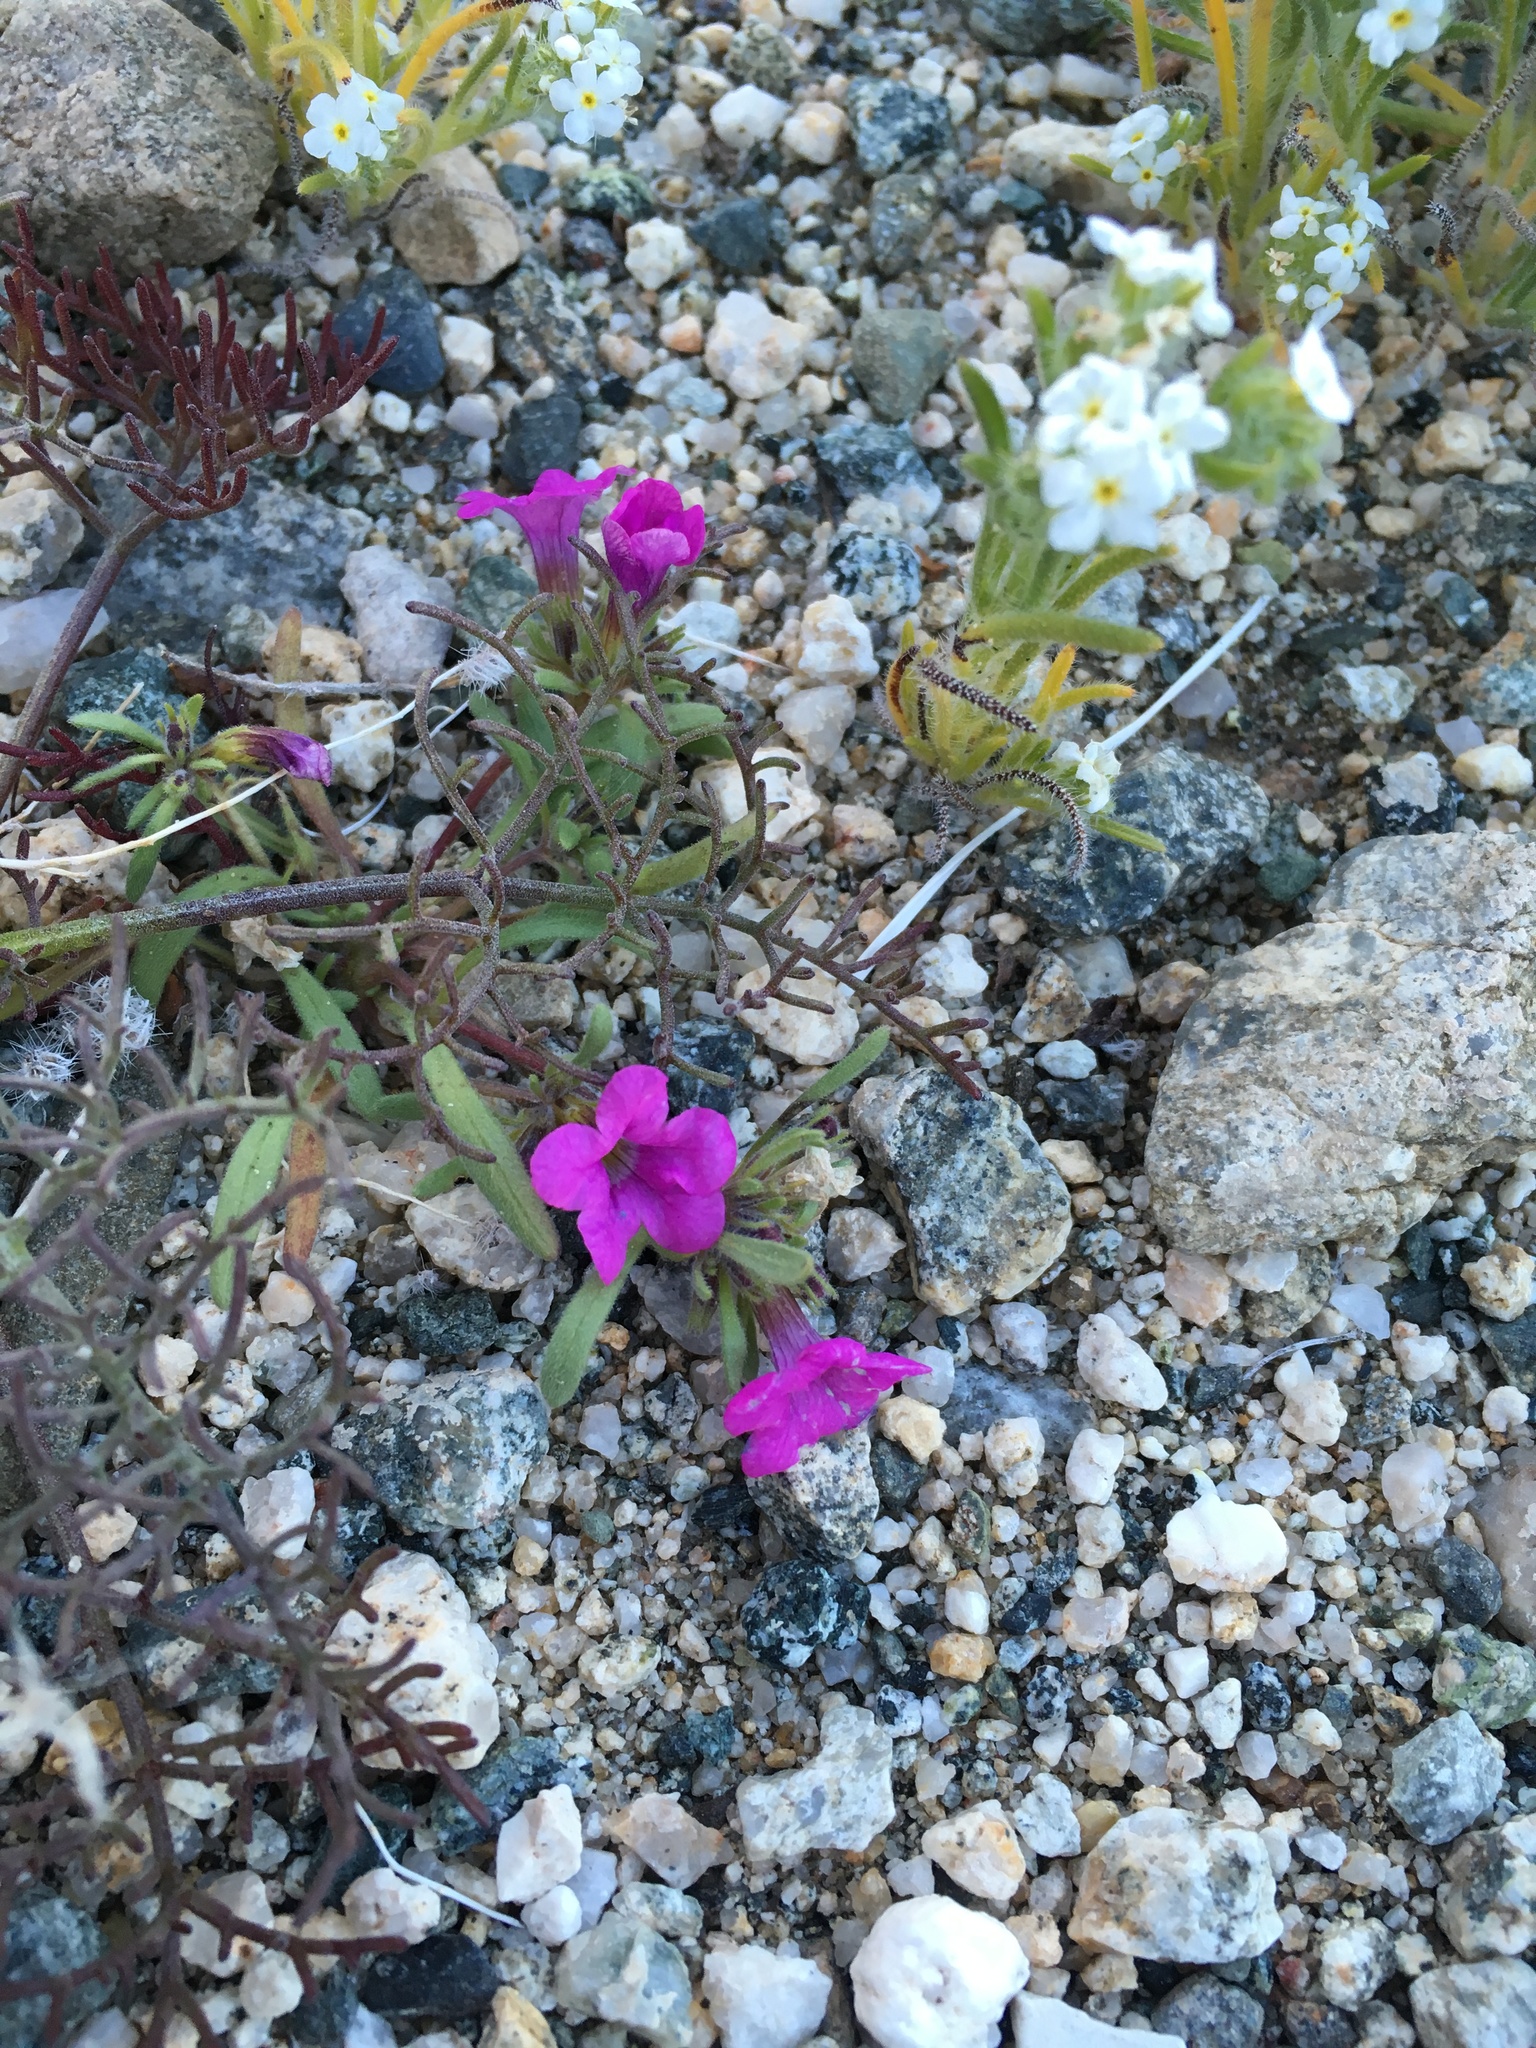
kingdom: Plantae
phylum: Tracheophyta
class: Magnoliopsida
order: Boraginales
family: Namaceae
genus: Nama
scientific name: Nama demissa
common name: Leafy nama
